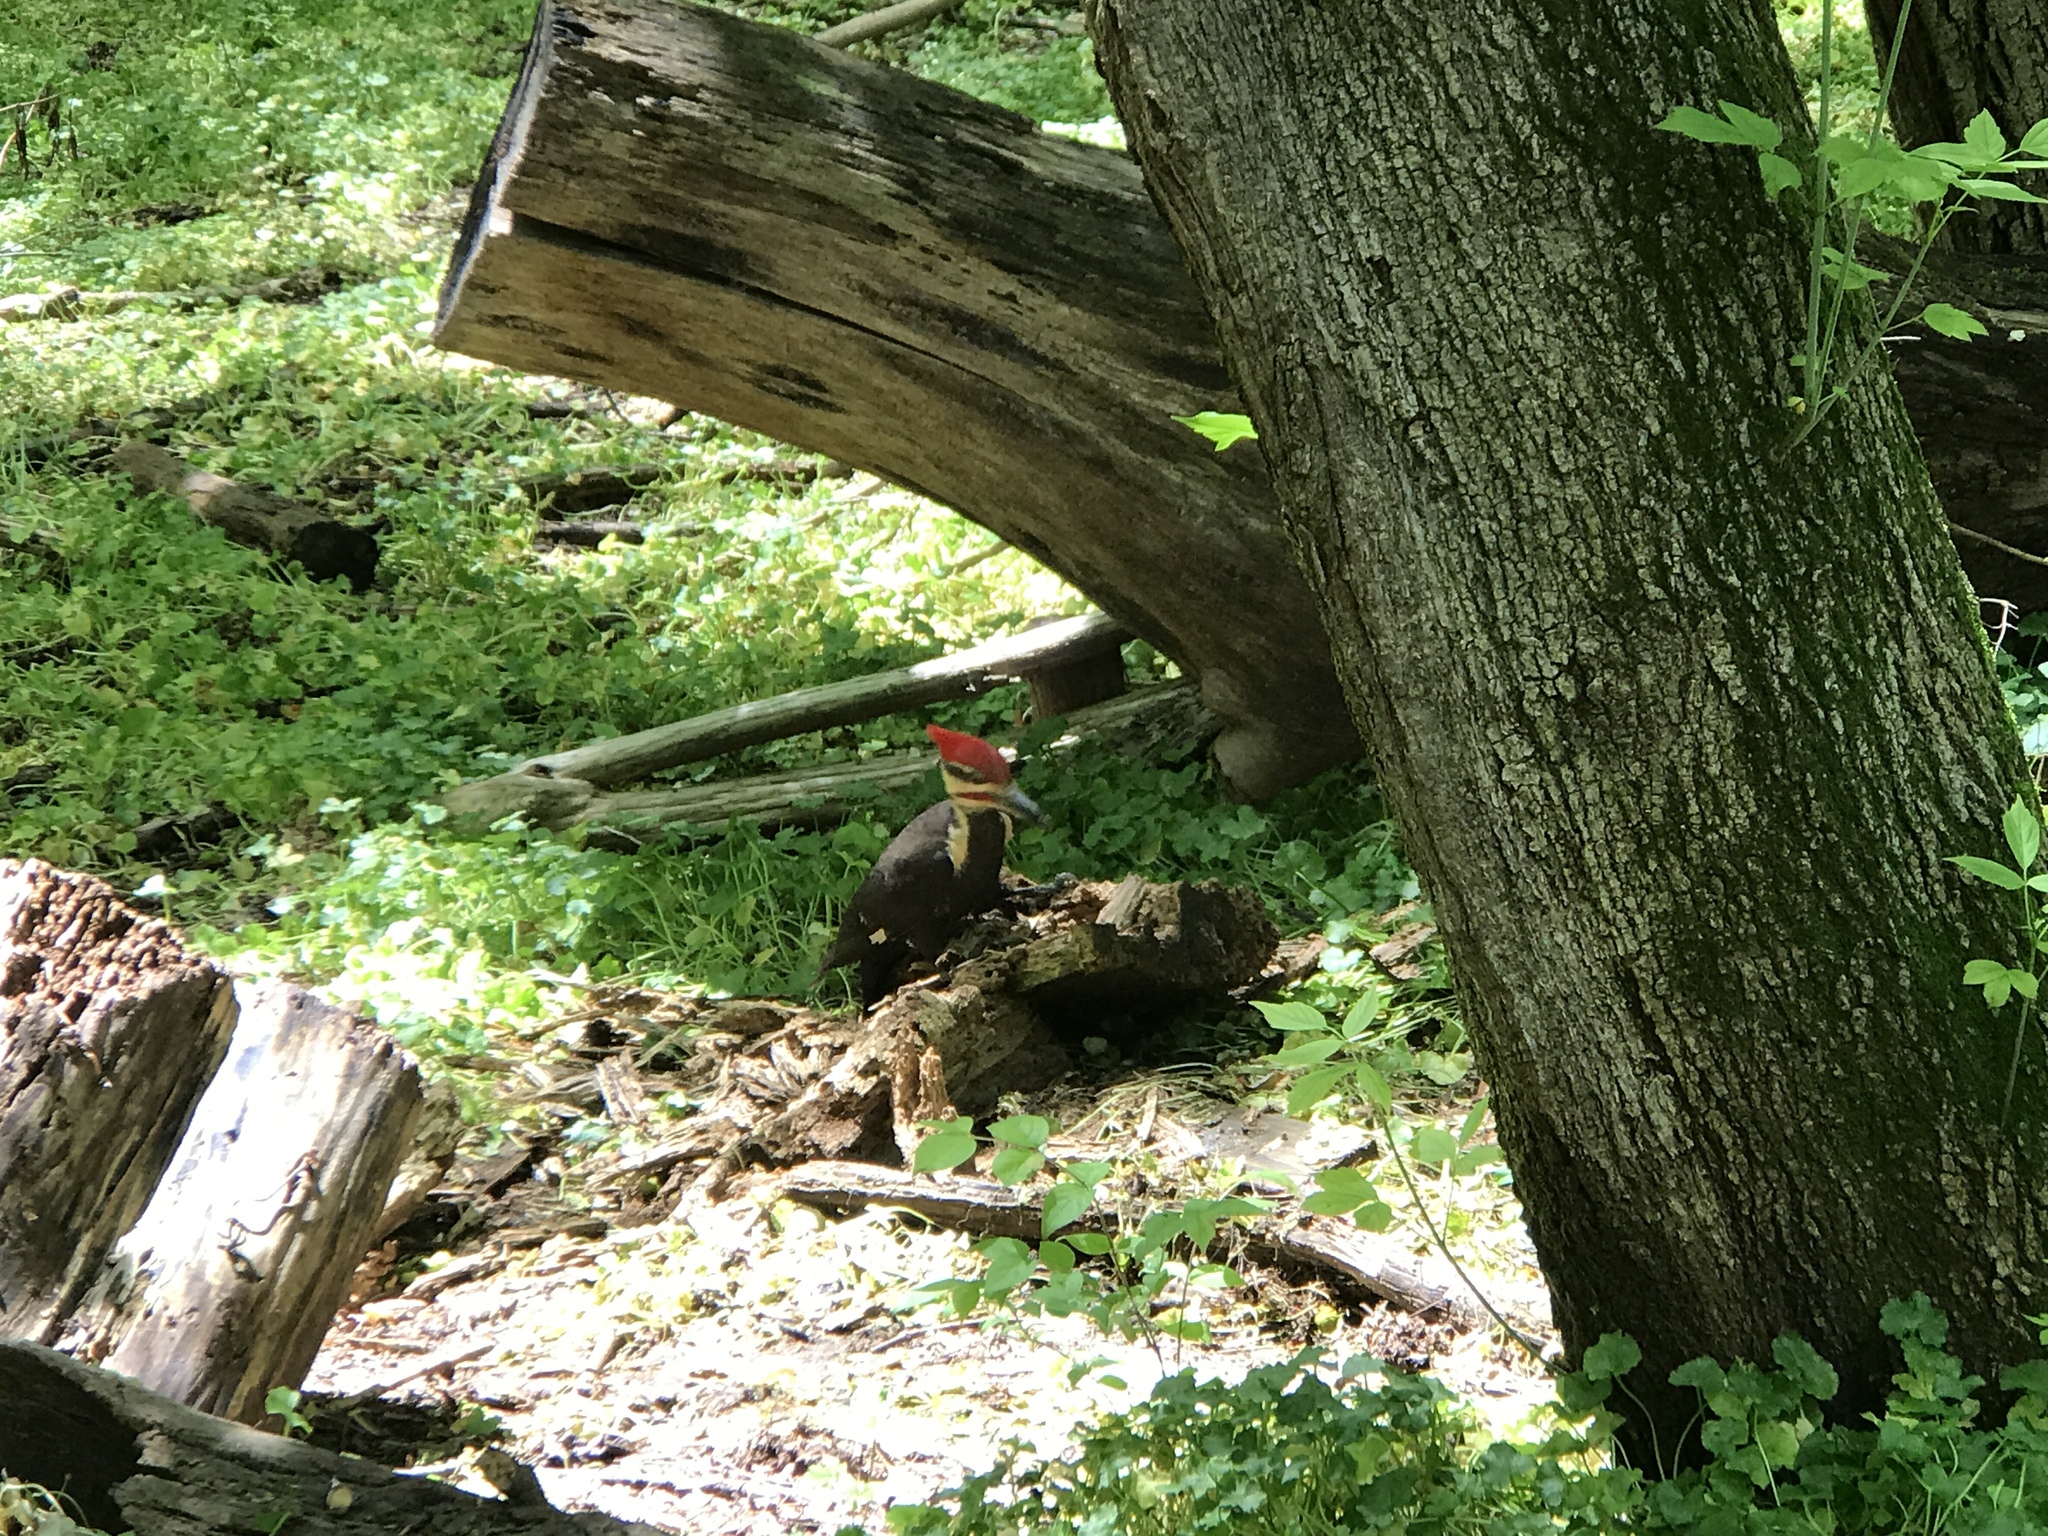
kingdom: Animalia
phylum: Chordata
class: Aves
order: Piciformes
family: Picidae
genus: Dryocopus
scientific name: Dryocopus pileatus
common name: Pileated woodpecker
